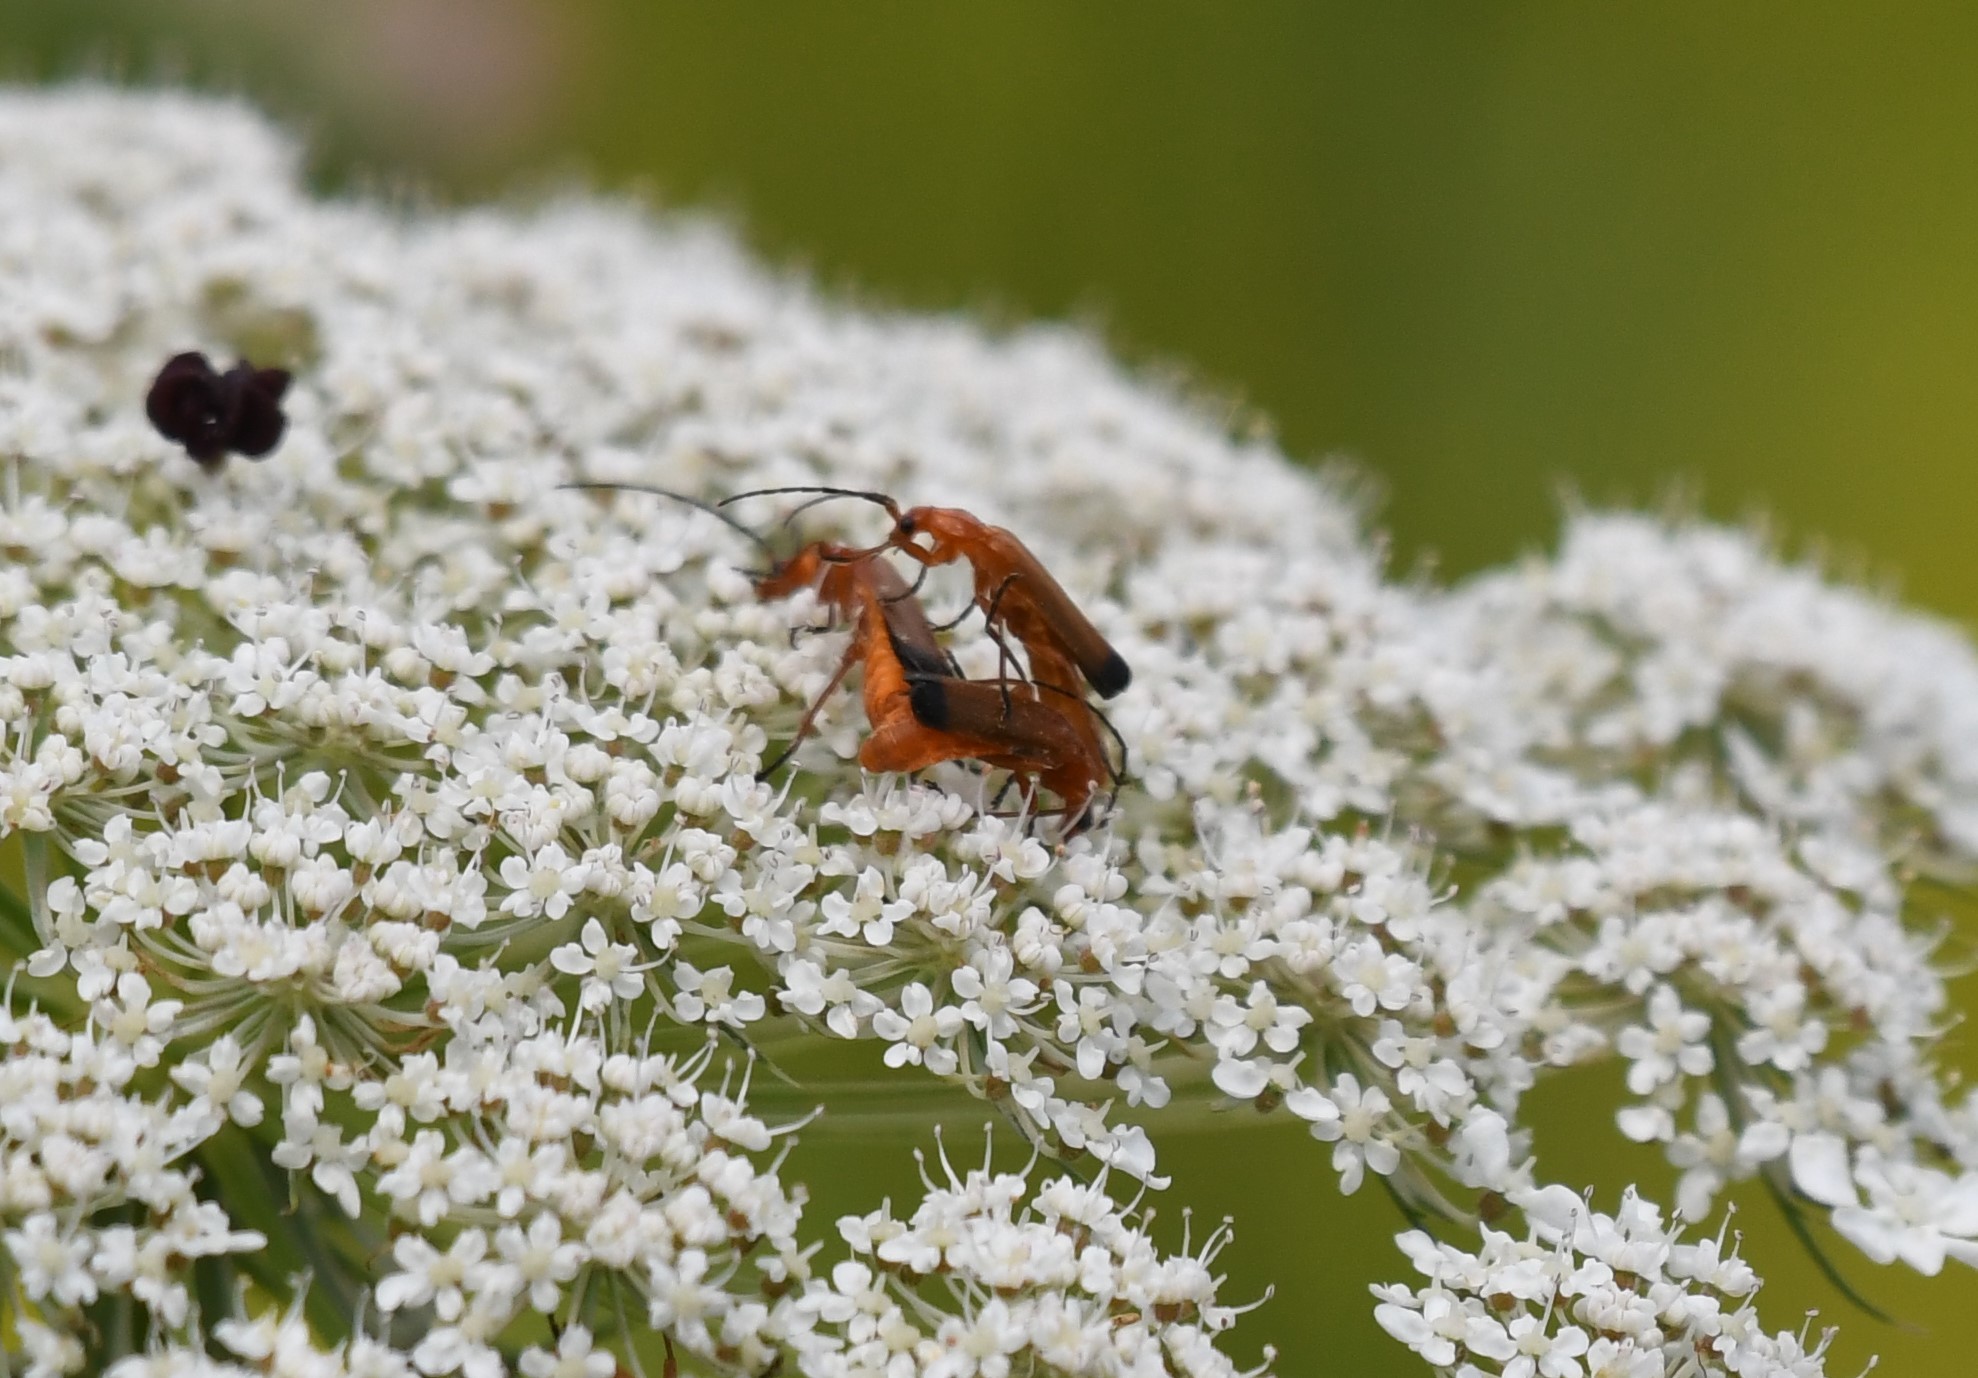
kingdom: Animalia
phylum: Arthropoda
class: Insecta
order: Coleoptera
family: Cantharidae
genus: Rhagonycha
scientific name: Rhagonycha fulva
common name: Common red soldier beetle
